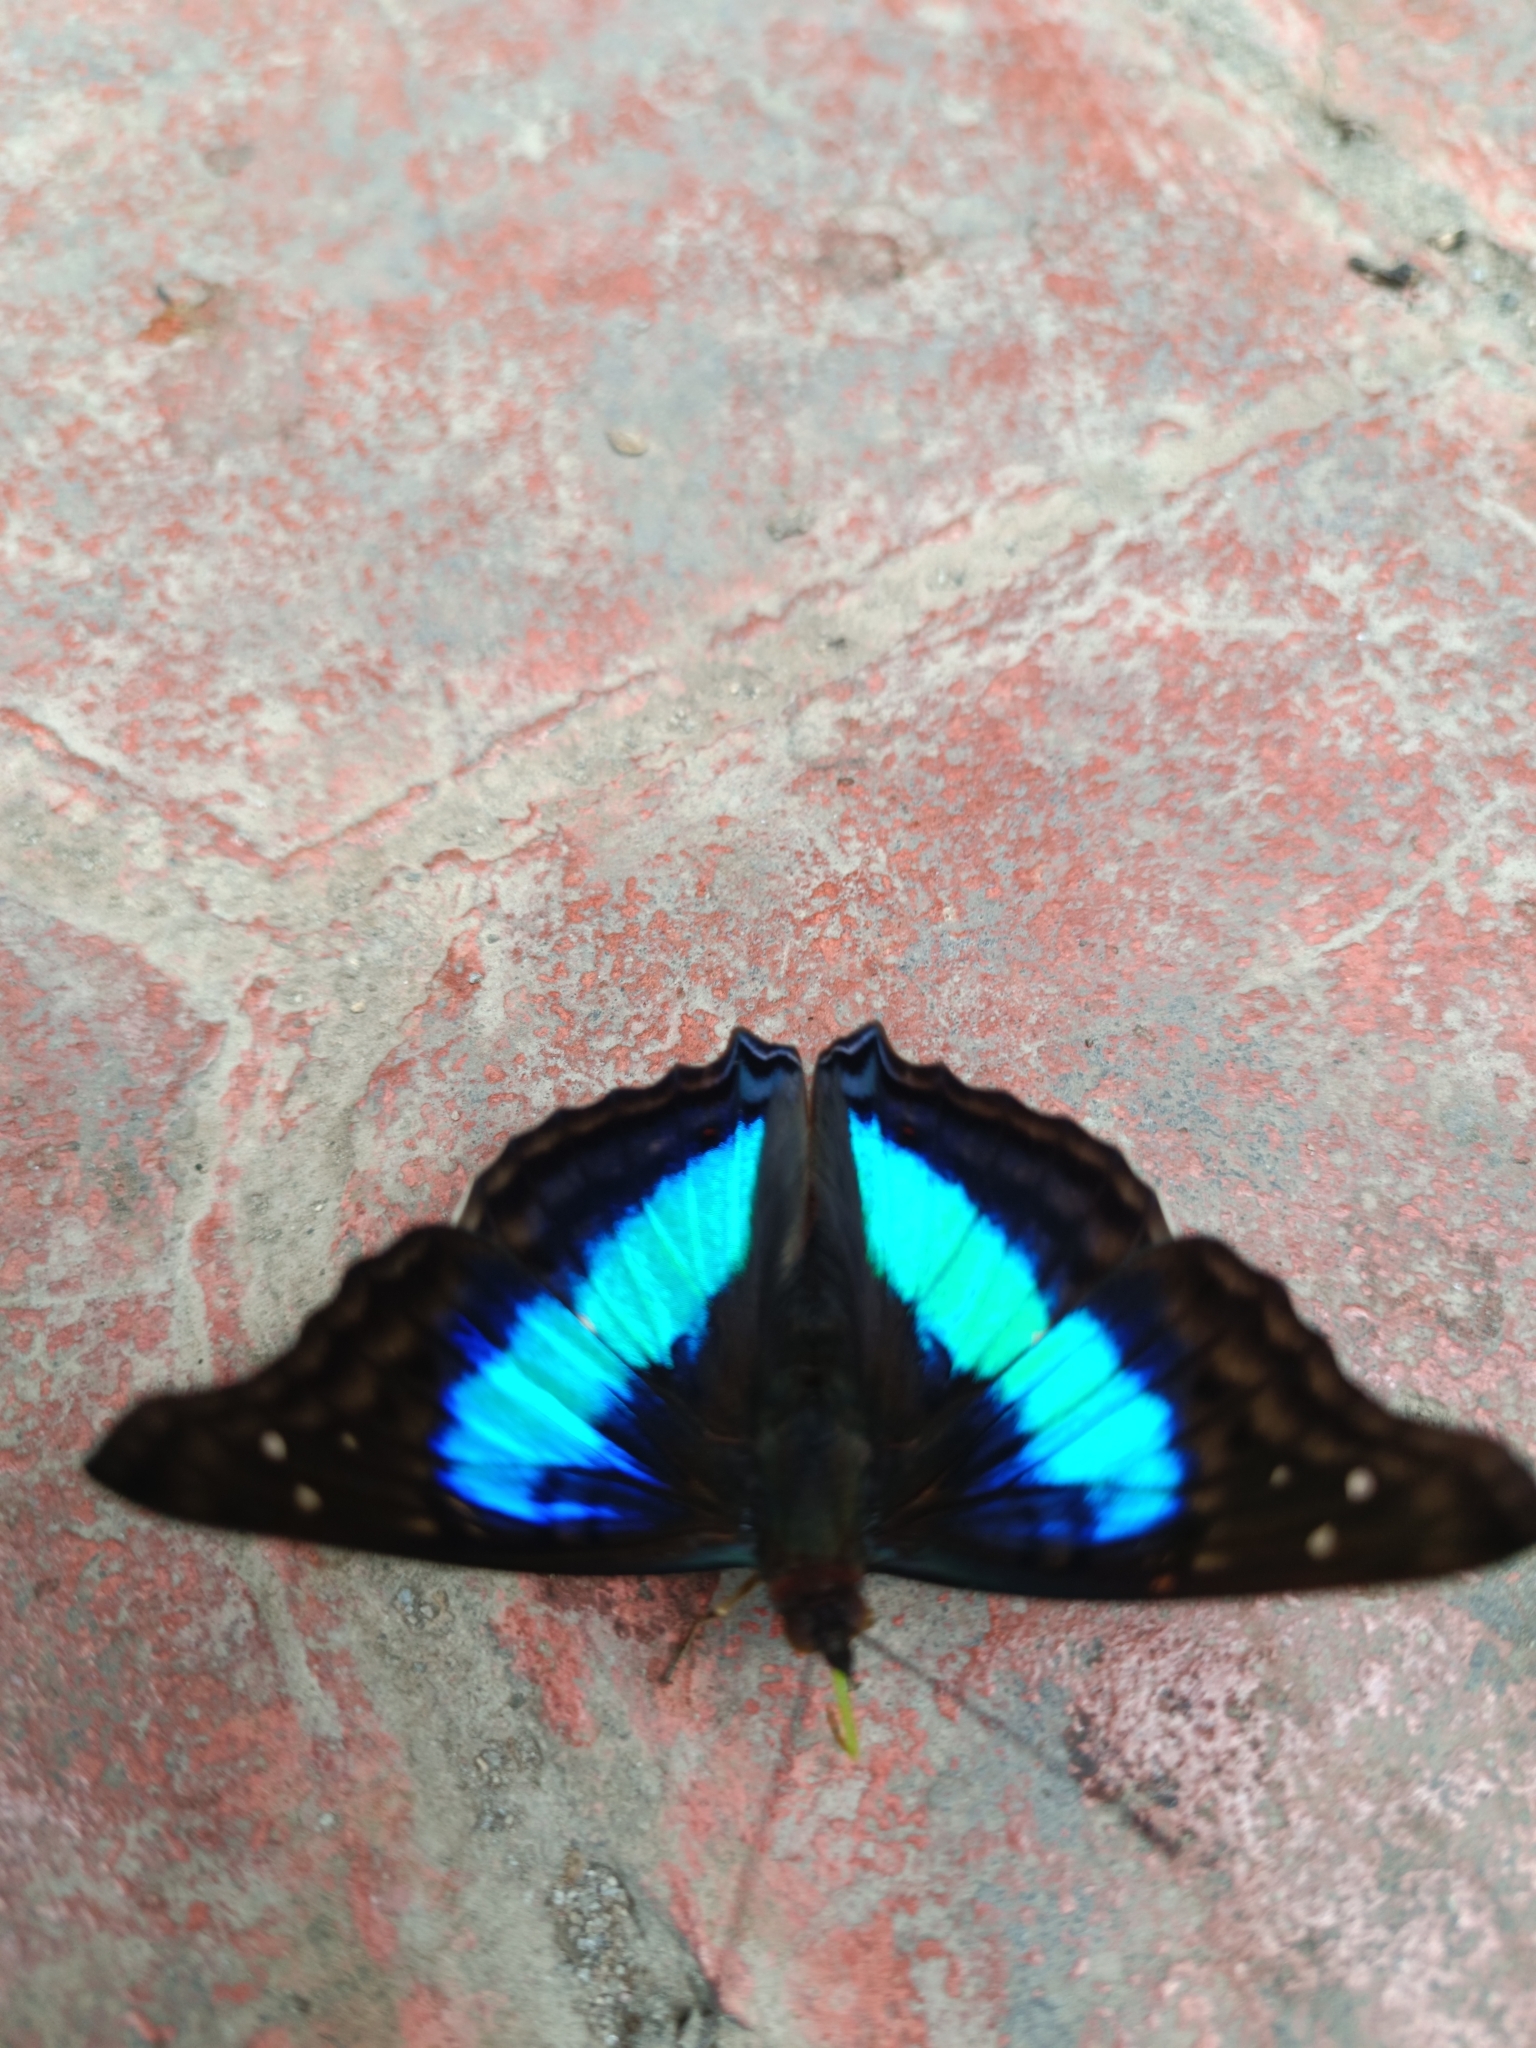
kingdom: Animalia
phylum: Arthropoda
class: Insecta
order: Lepidoptera
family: Nymphalidae
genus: Doxocopa
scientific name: Doxocopa laurentia
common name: Turquoise emperor
